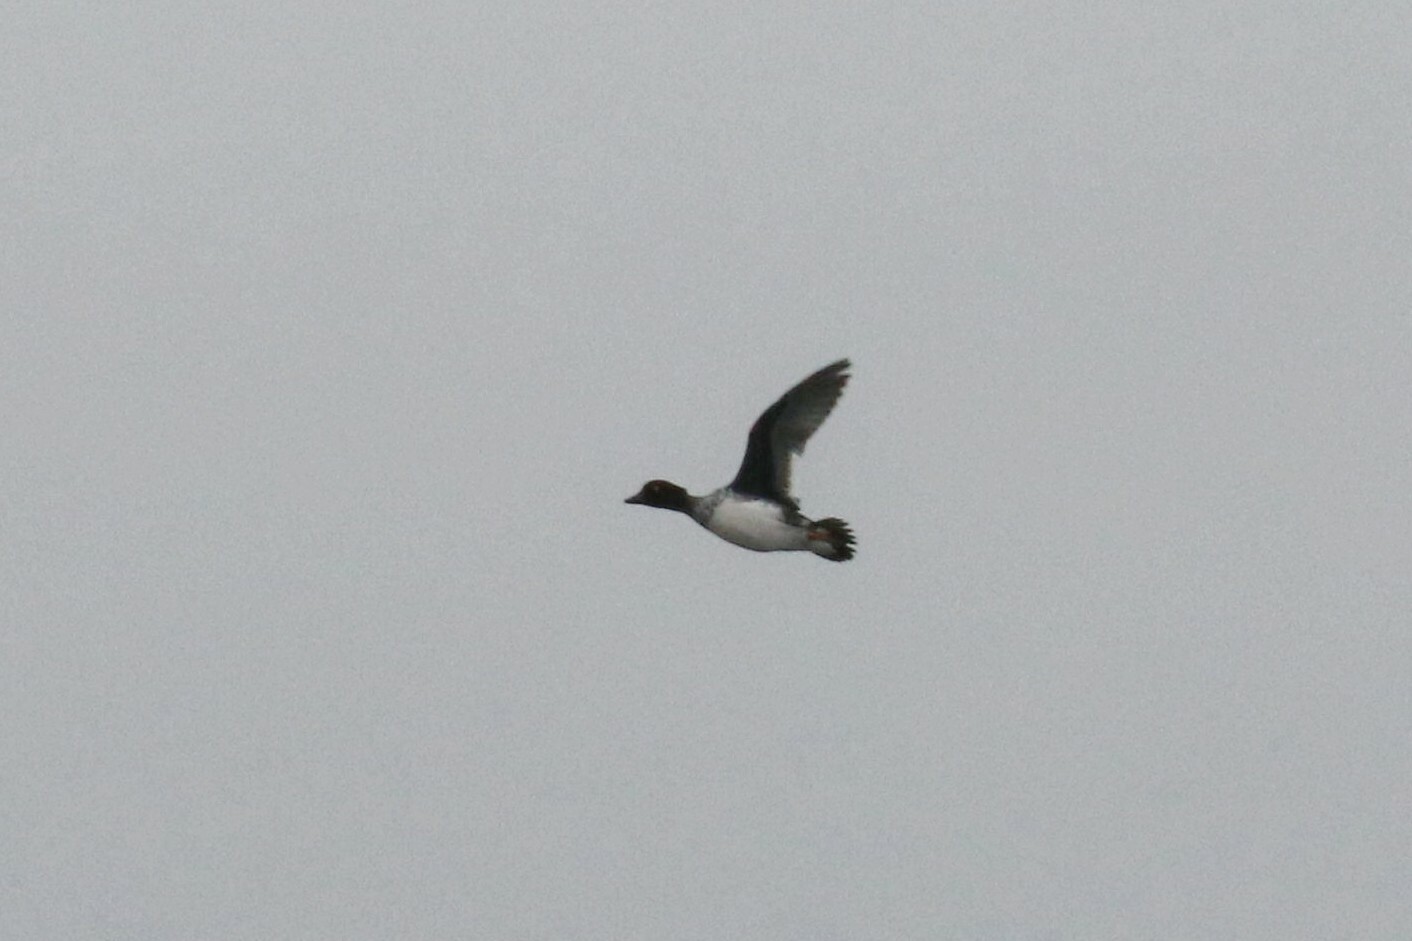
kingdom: Animalia
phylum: Chordata
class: Aves
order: Anseriformes
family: Anatidae
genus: Bucephala
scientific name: Bucephala clangula
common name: Common goldeneye
